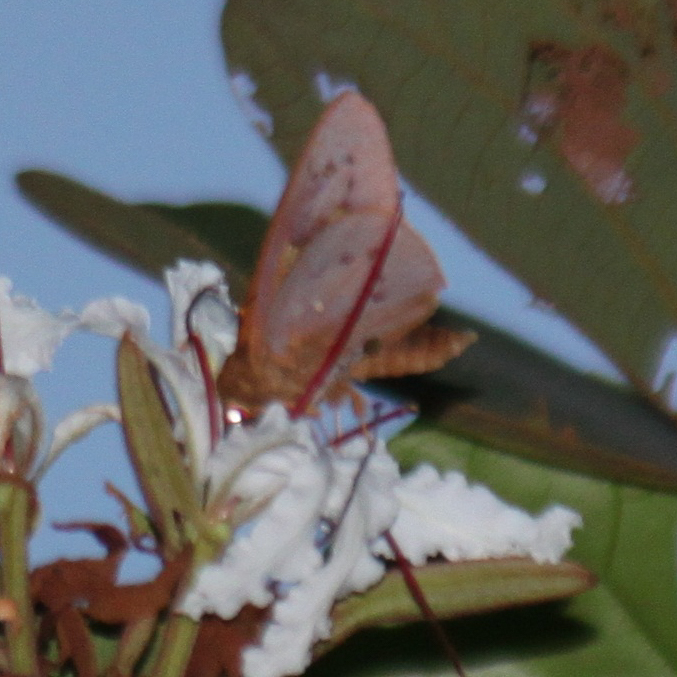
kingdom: Animalia
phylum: Arthropoda
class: Insecta
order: Lepidoptera
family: Hesperiidae
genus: Hidari
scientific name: Hidari irava
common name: Coconut skipper
